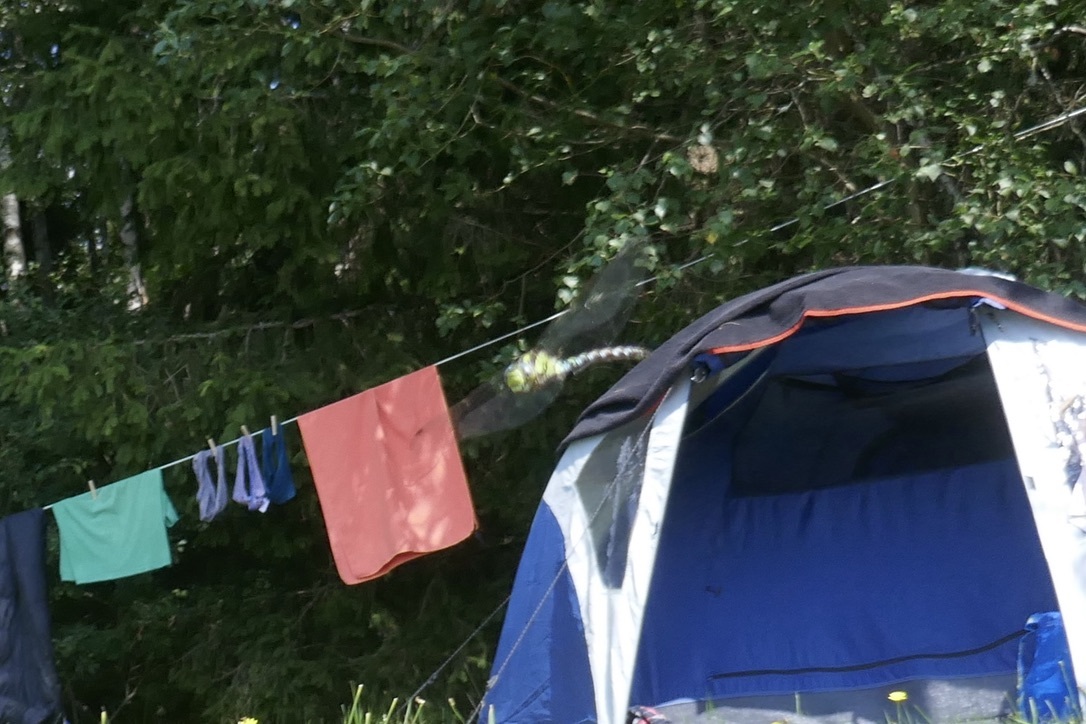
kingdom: Animalia
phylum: Arthropoda
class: Insecta
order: Odonata
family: Aeshnidae
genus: Aeshna
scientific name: Aeshna cyanea
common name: Southern hawker
